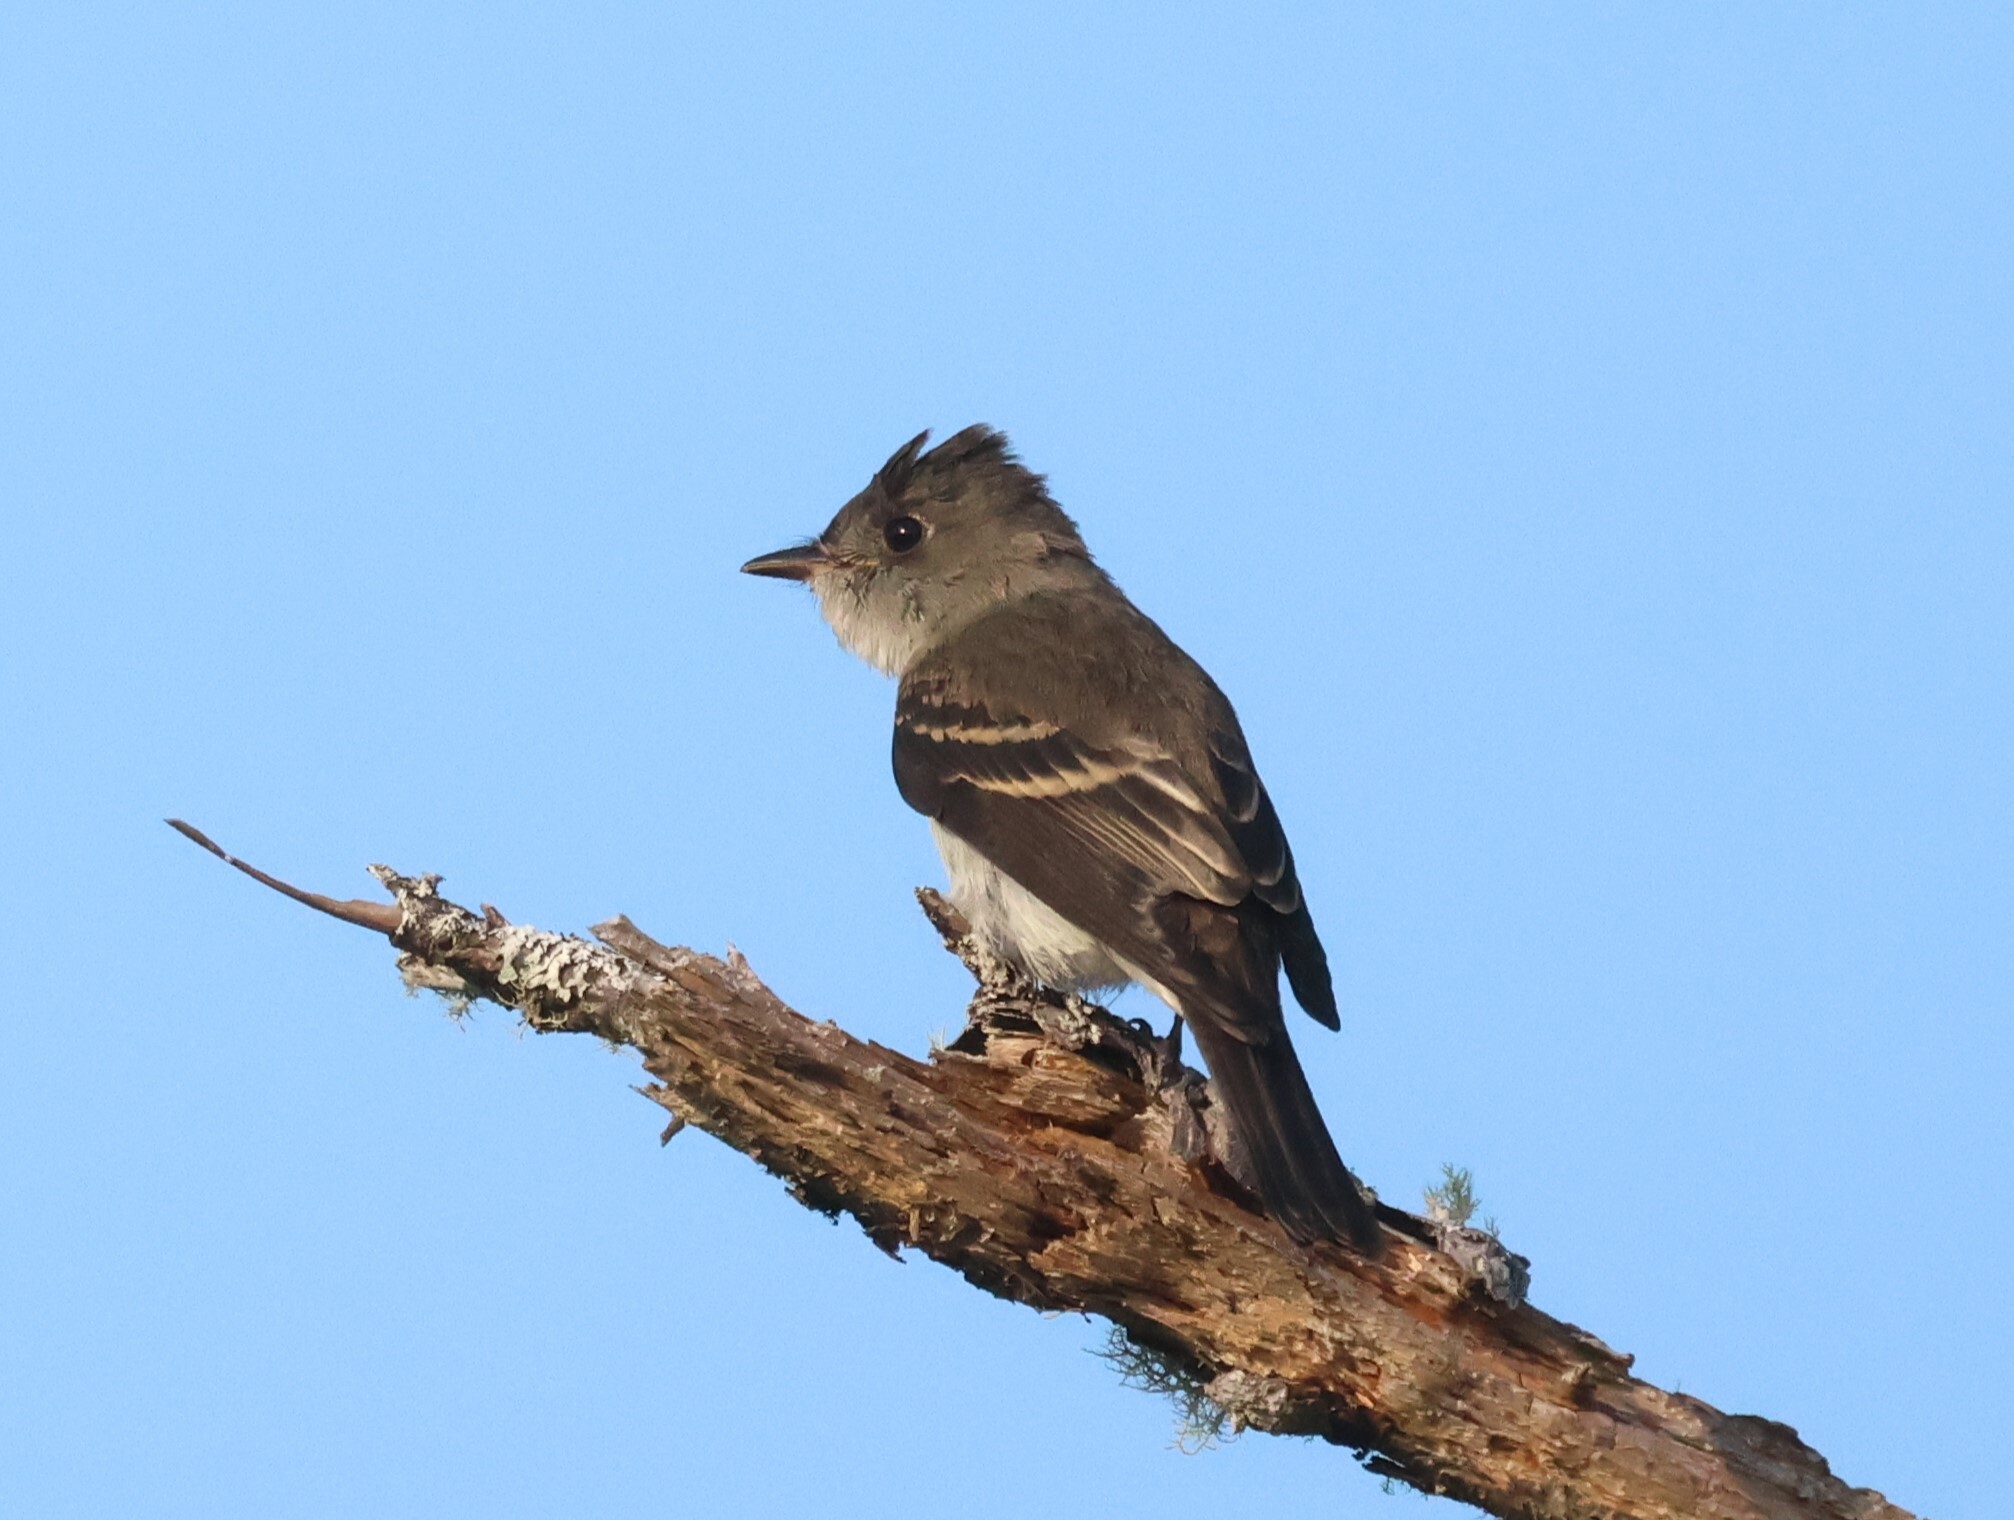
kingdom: Animalia
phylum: Chordata
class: Aves
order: Passeriformes
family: Tyrannidae
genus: Contopus
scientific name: Contopus virens
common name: Eastern wood-pewee
